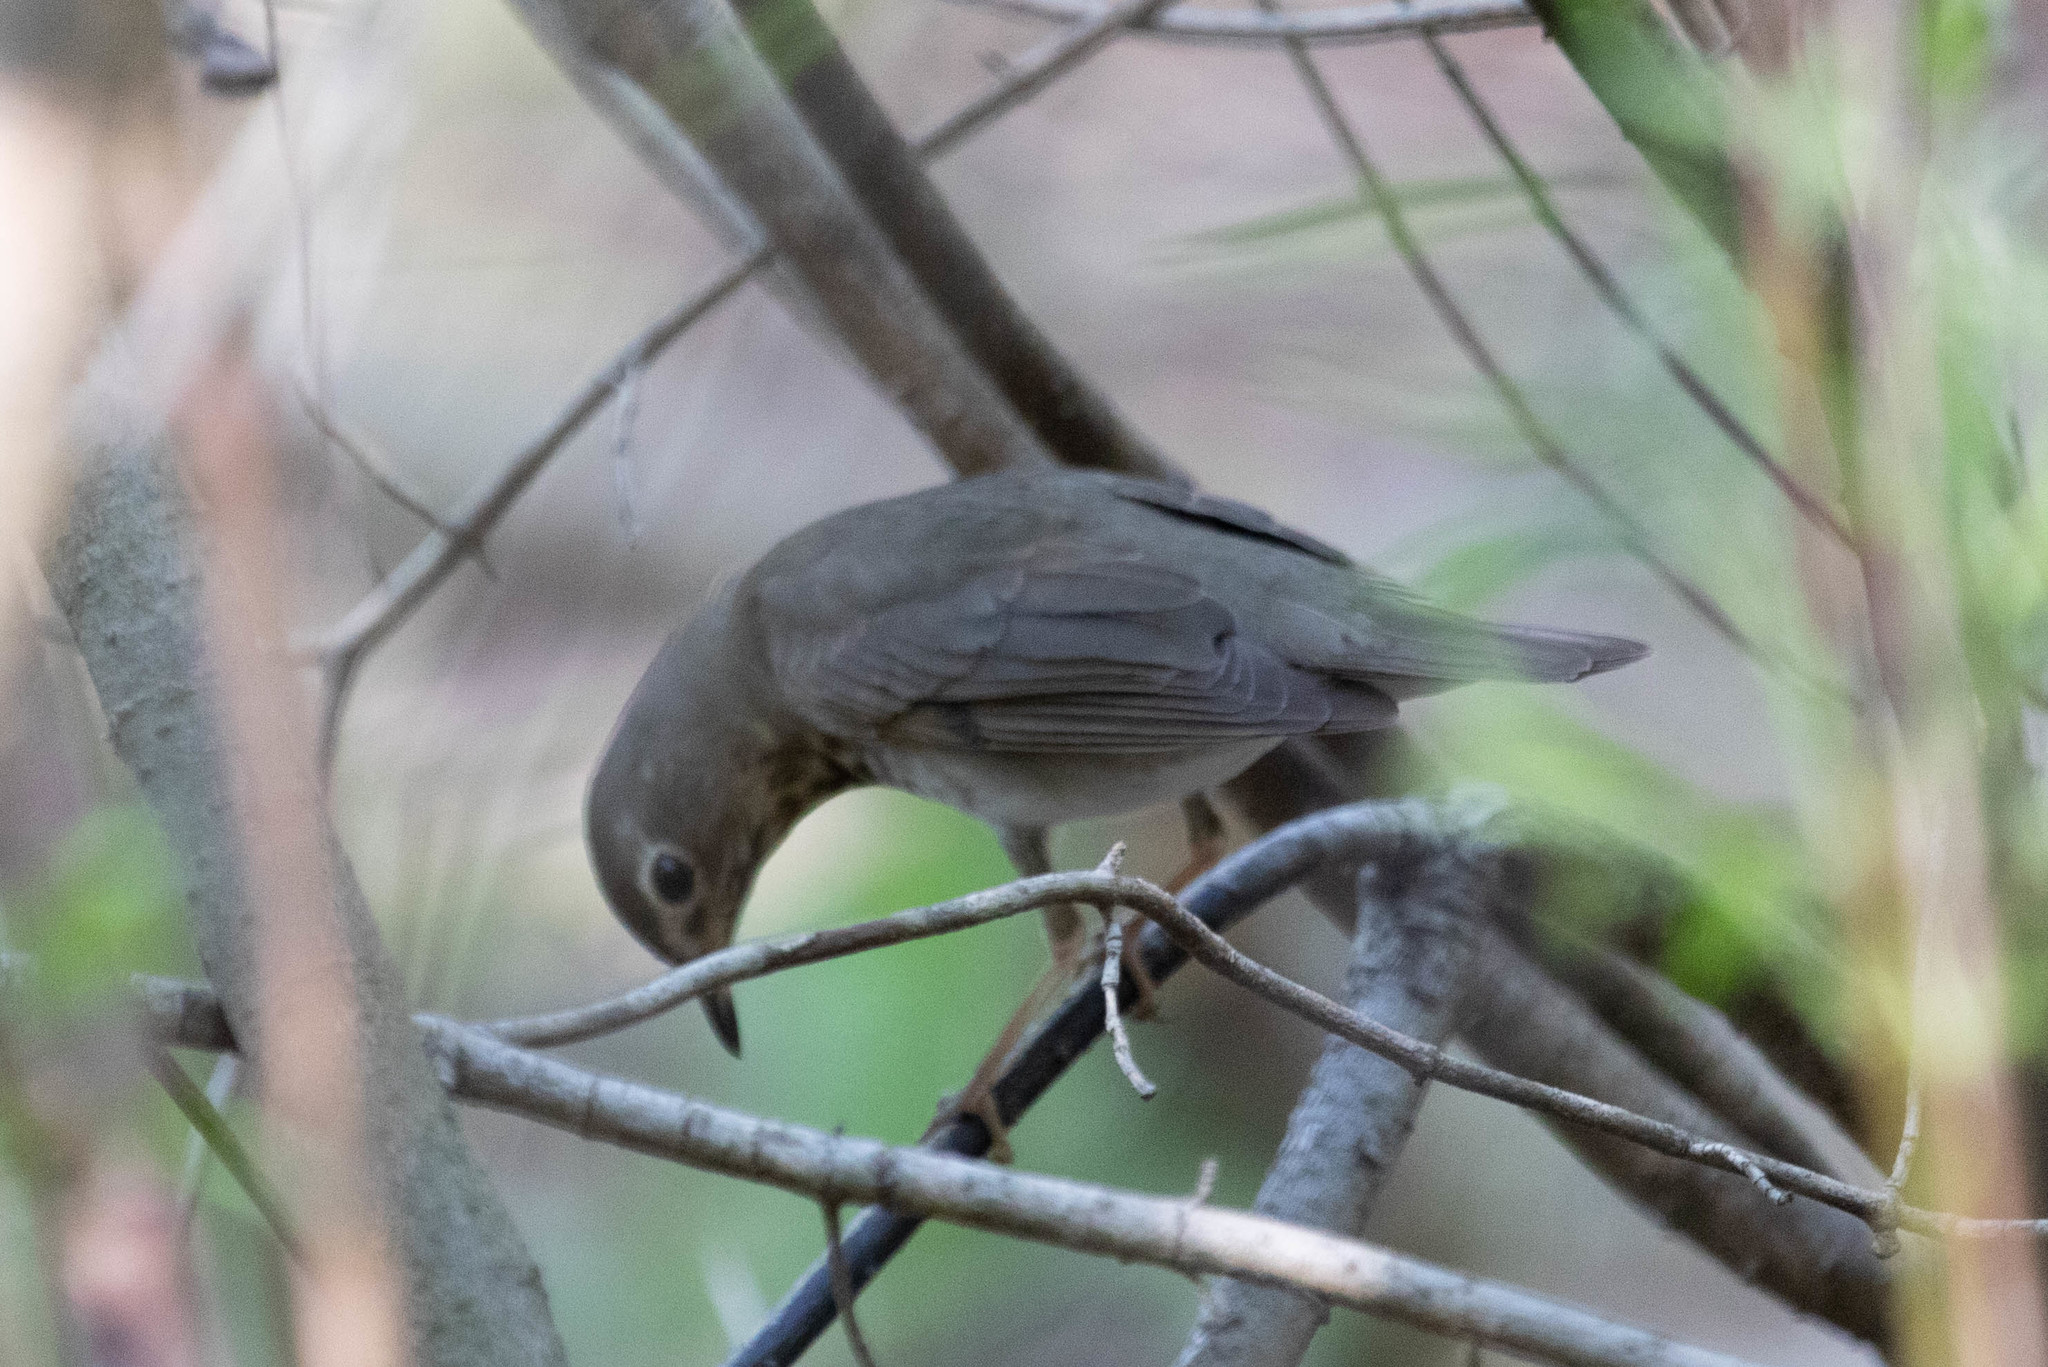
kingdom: Animalia
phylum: Chordata
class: Aves
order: Passeriformes
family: Turdidae
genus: Catharus
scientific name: Catharus ustulatus
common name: Swainson's thrush
